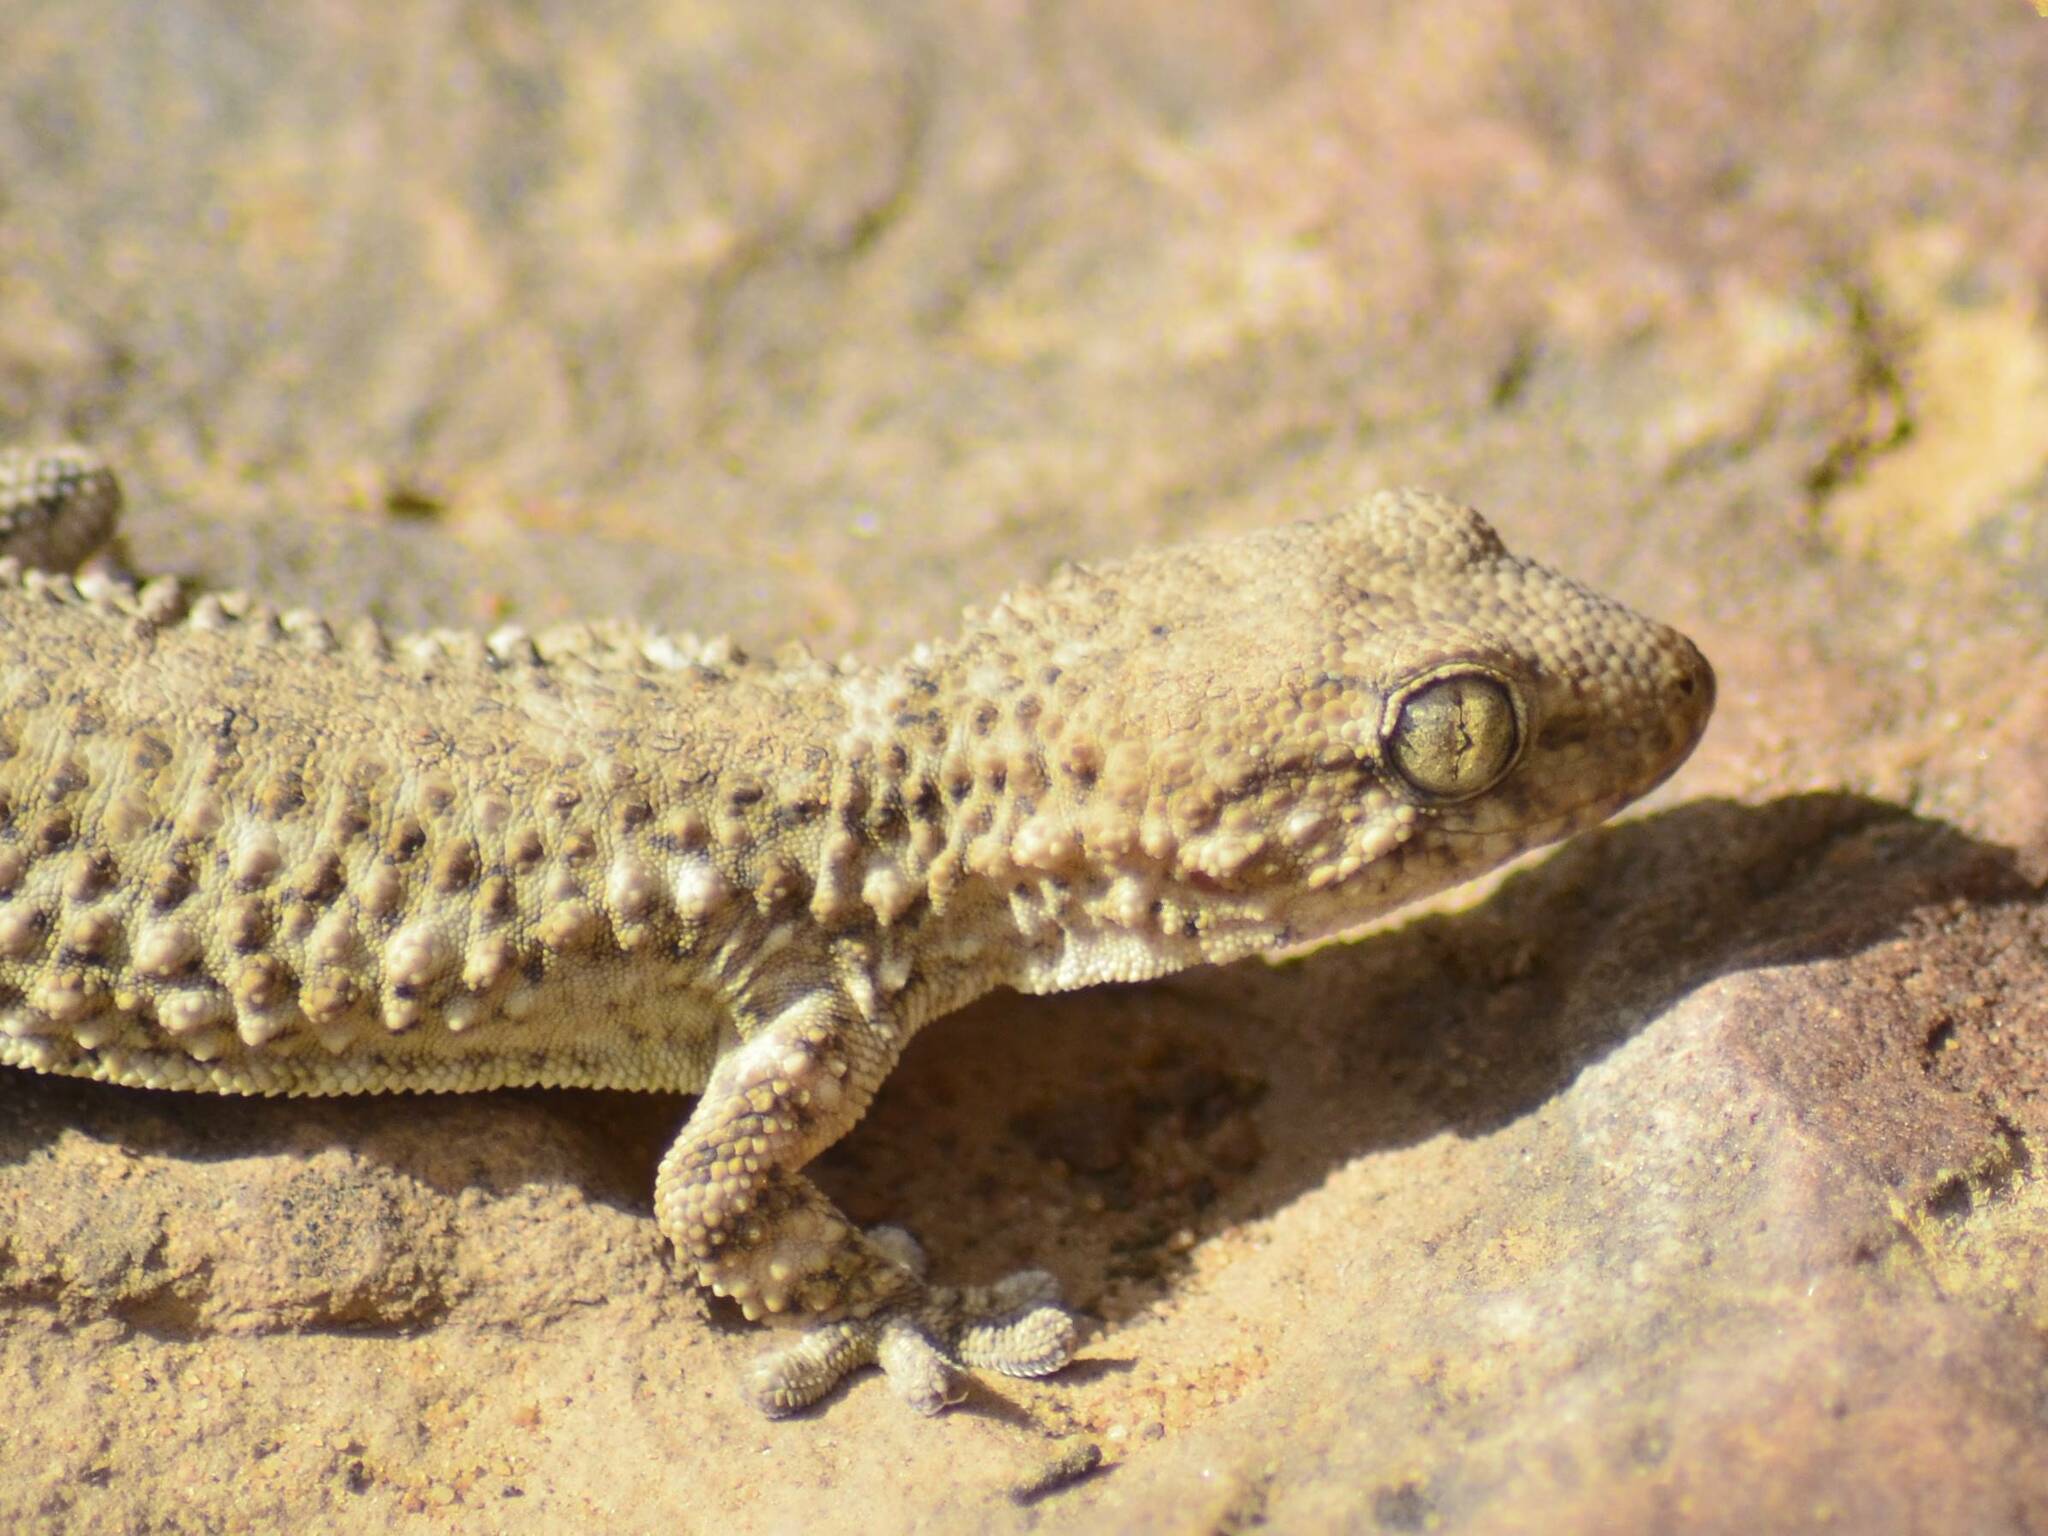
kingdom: Animalia
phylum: Chordata
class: Squamata
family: Phyllodactylidae
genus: Tarentola
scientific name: Tarentola mauritanica
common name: Moorish gecko
